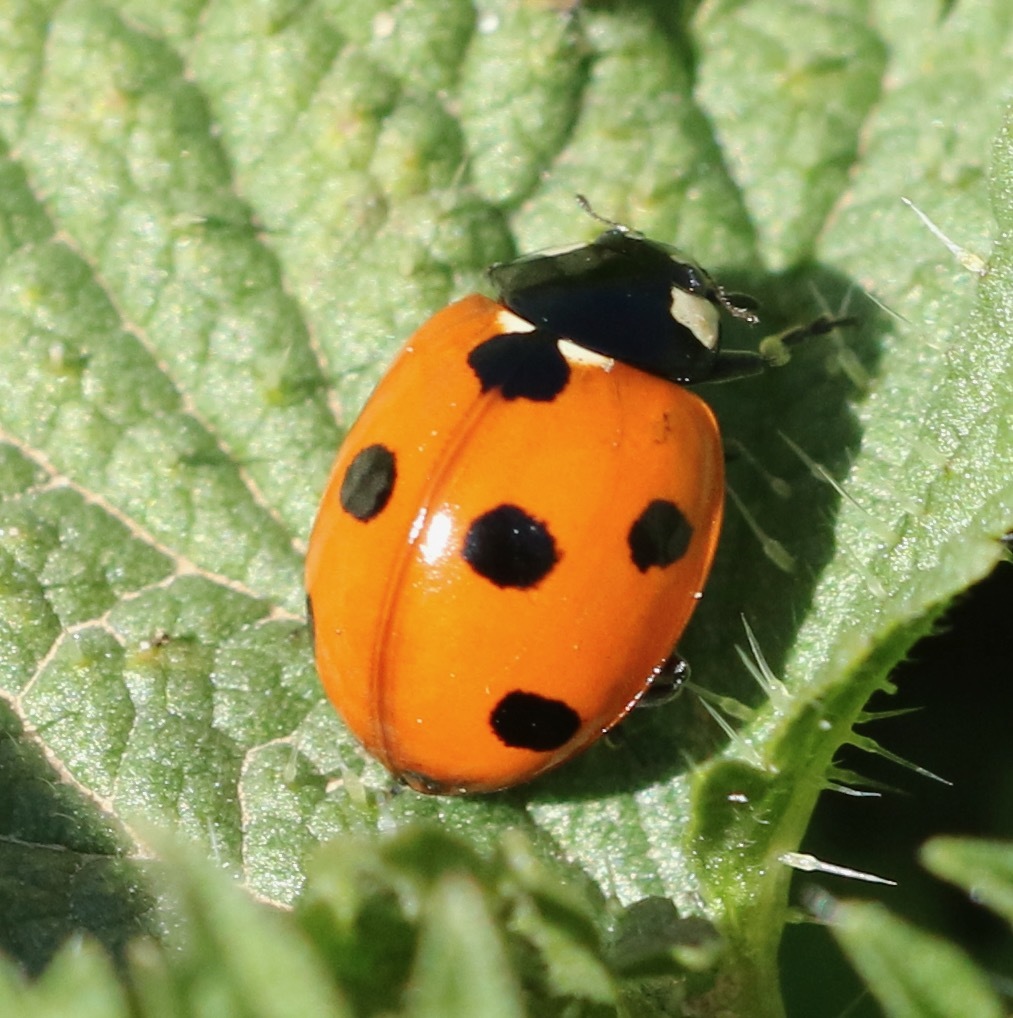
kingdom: Animalia
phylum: Arthropoda
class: Insecta
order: Coleoptera
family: Coccinellidae
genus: Coccinella
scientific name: Coccinella septempunctata
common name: Sevenspotted lady beetle
